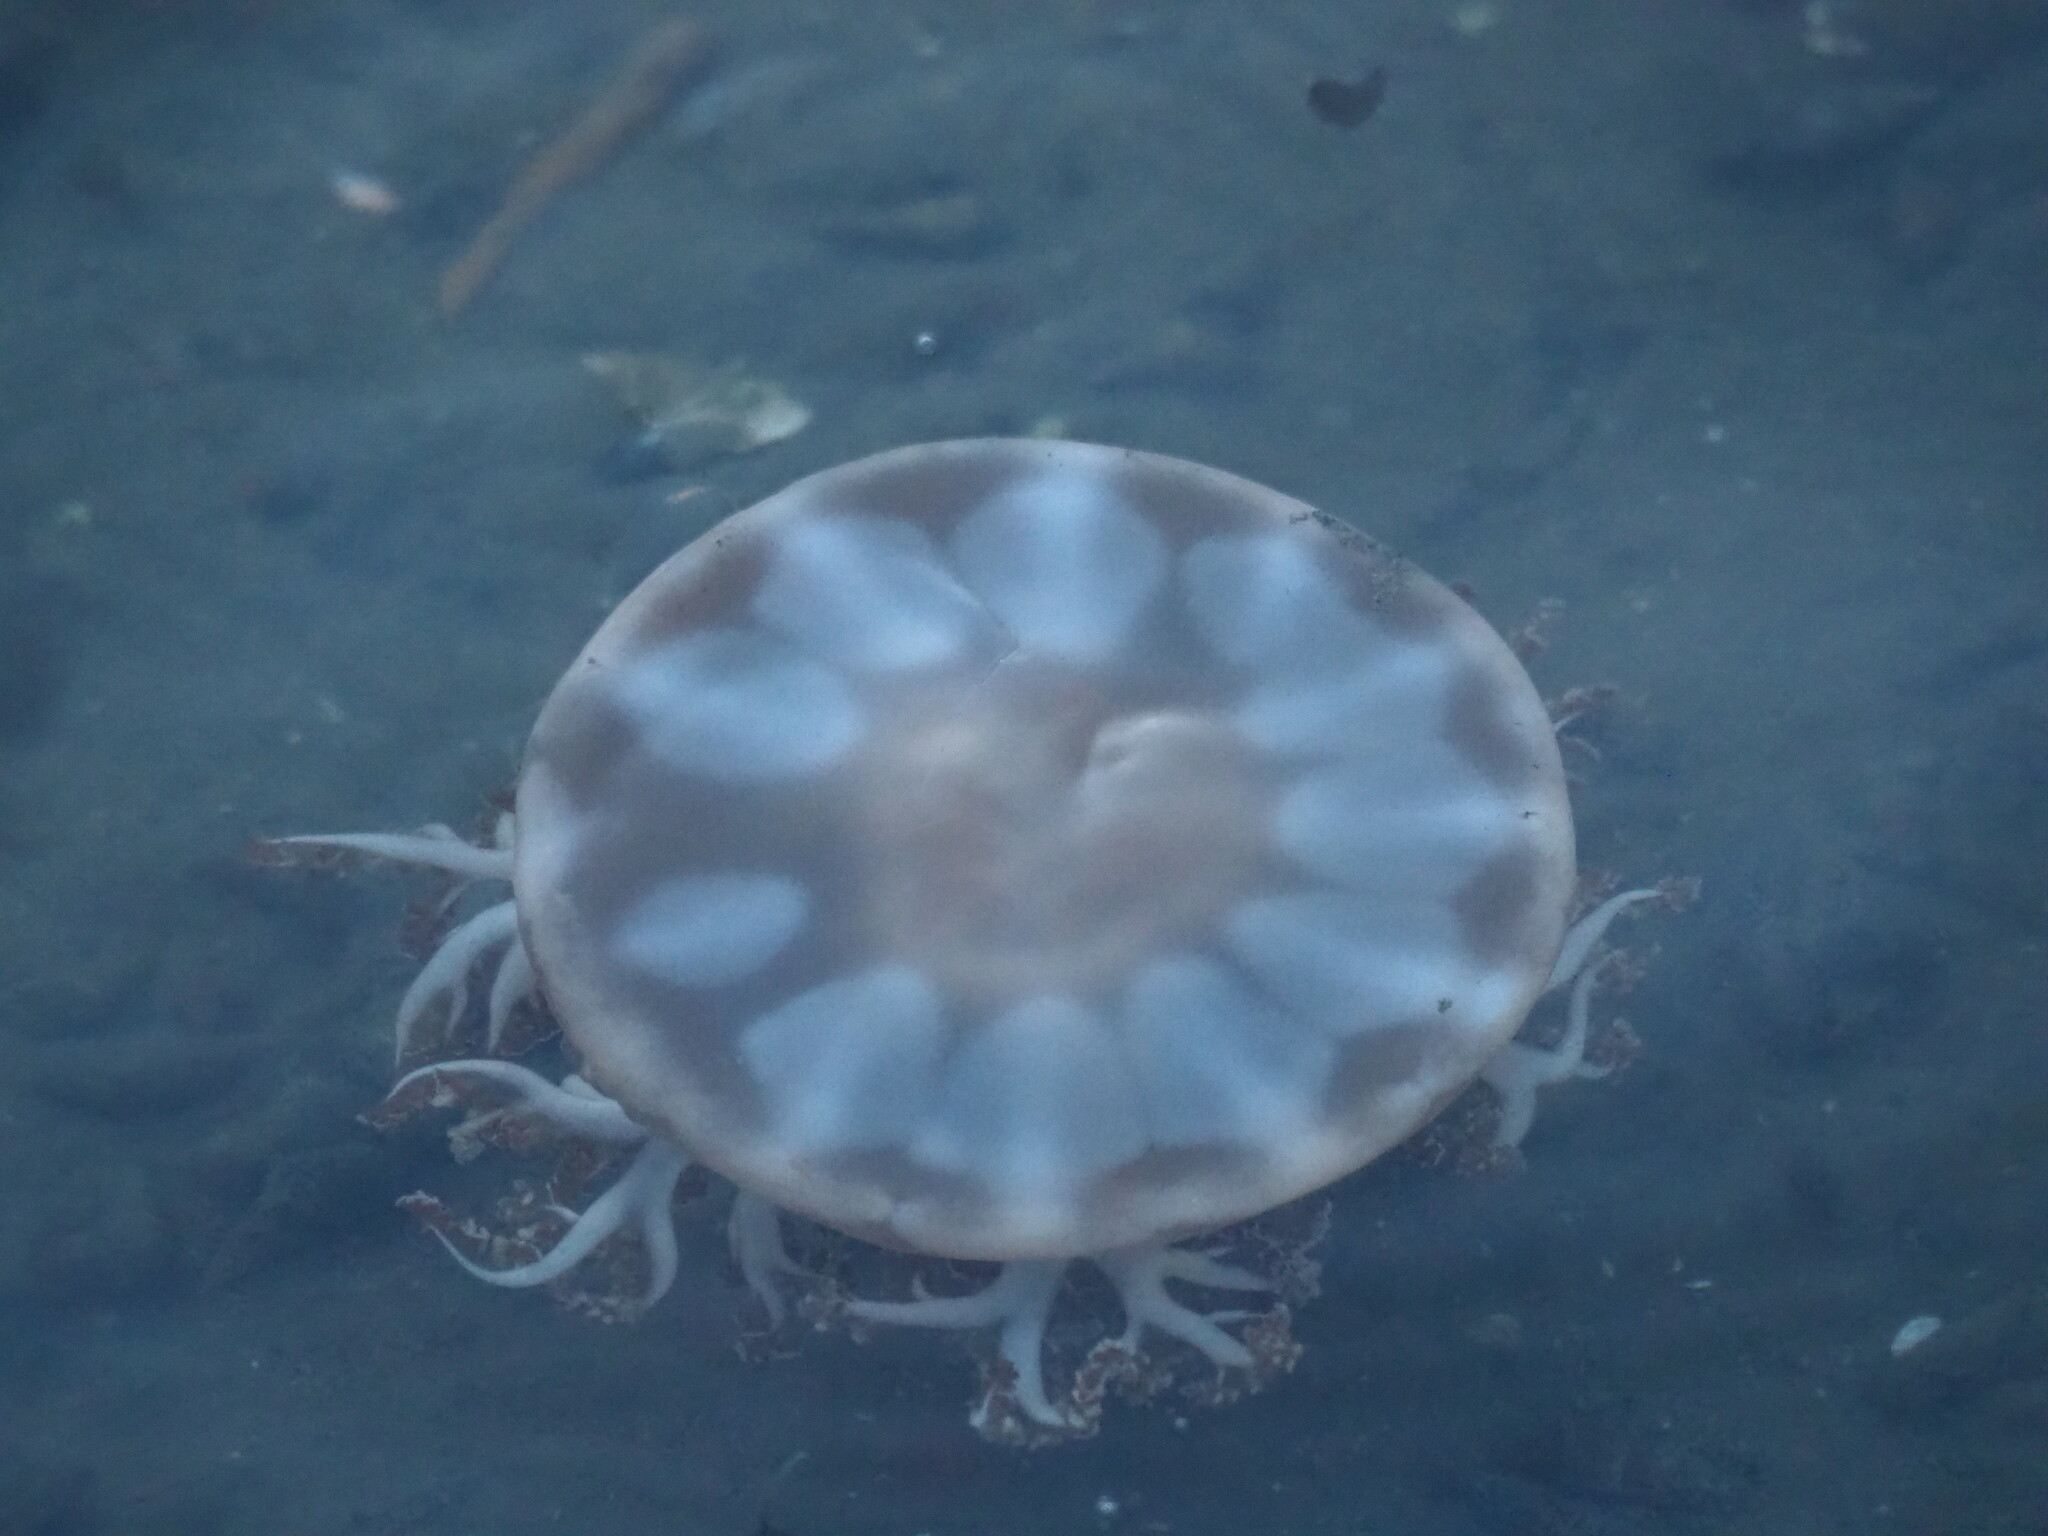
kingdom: Animalia
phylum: Cnidaria
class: Scyphozoa
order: Rhizostomeae
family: Cassiopeidae
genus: Cassiopea
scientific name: Cassiopea andromeda
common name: Upside-down jellyfish
